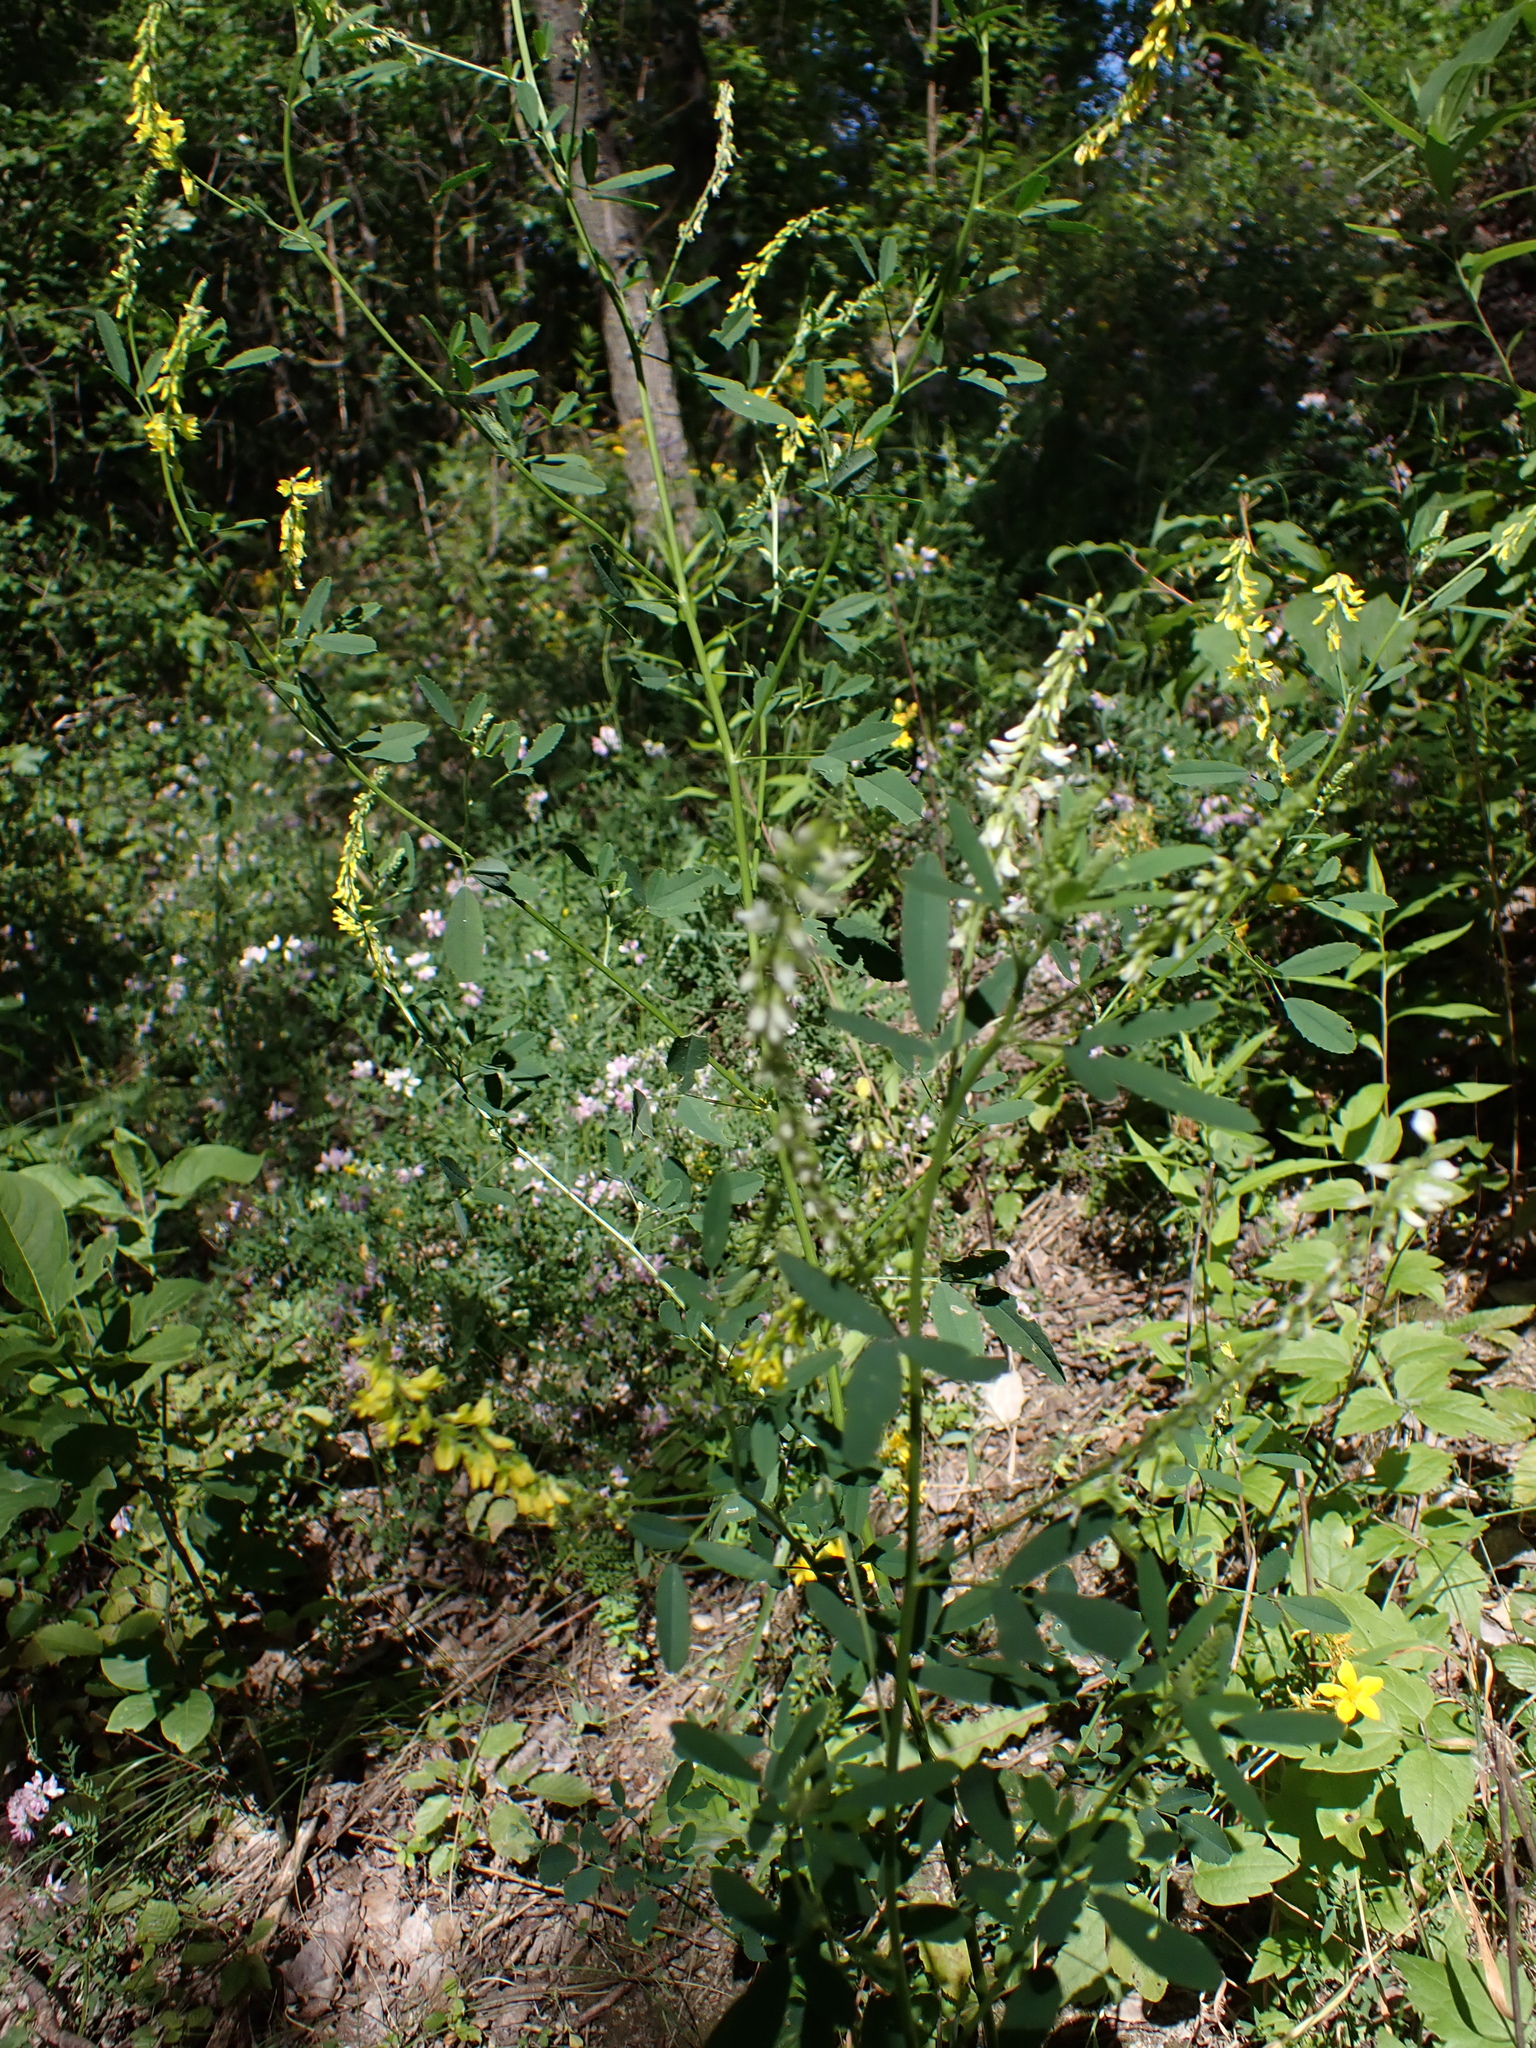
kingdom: Plantae
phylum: Tracheophyta
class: Magnoliopsida
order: Fabales
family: Fabaceae
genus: Melilotus
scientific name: Melilotus albus
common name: White melilot
